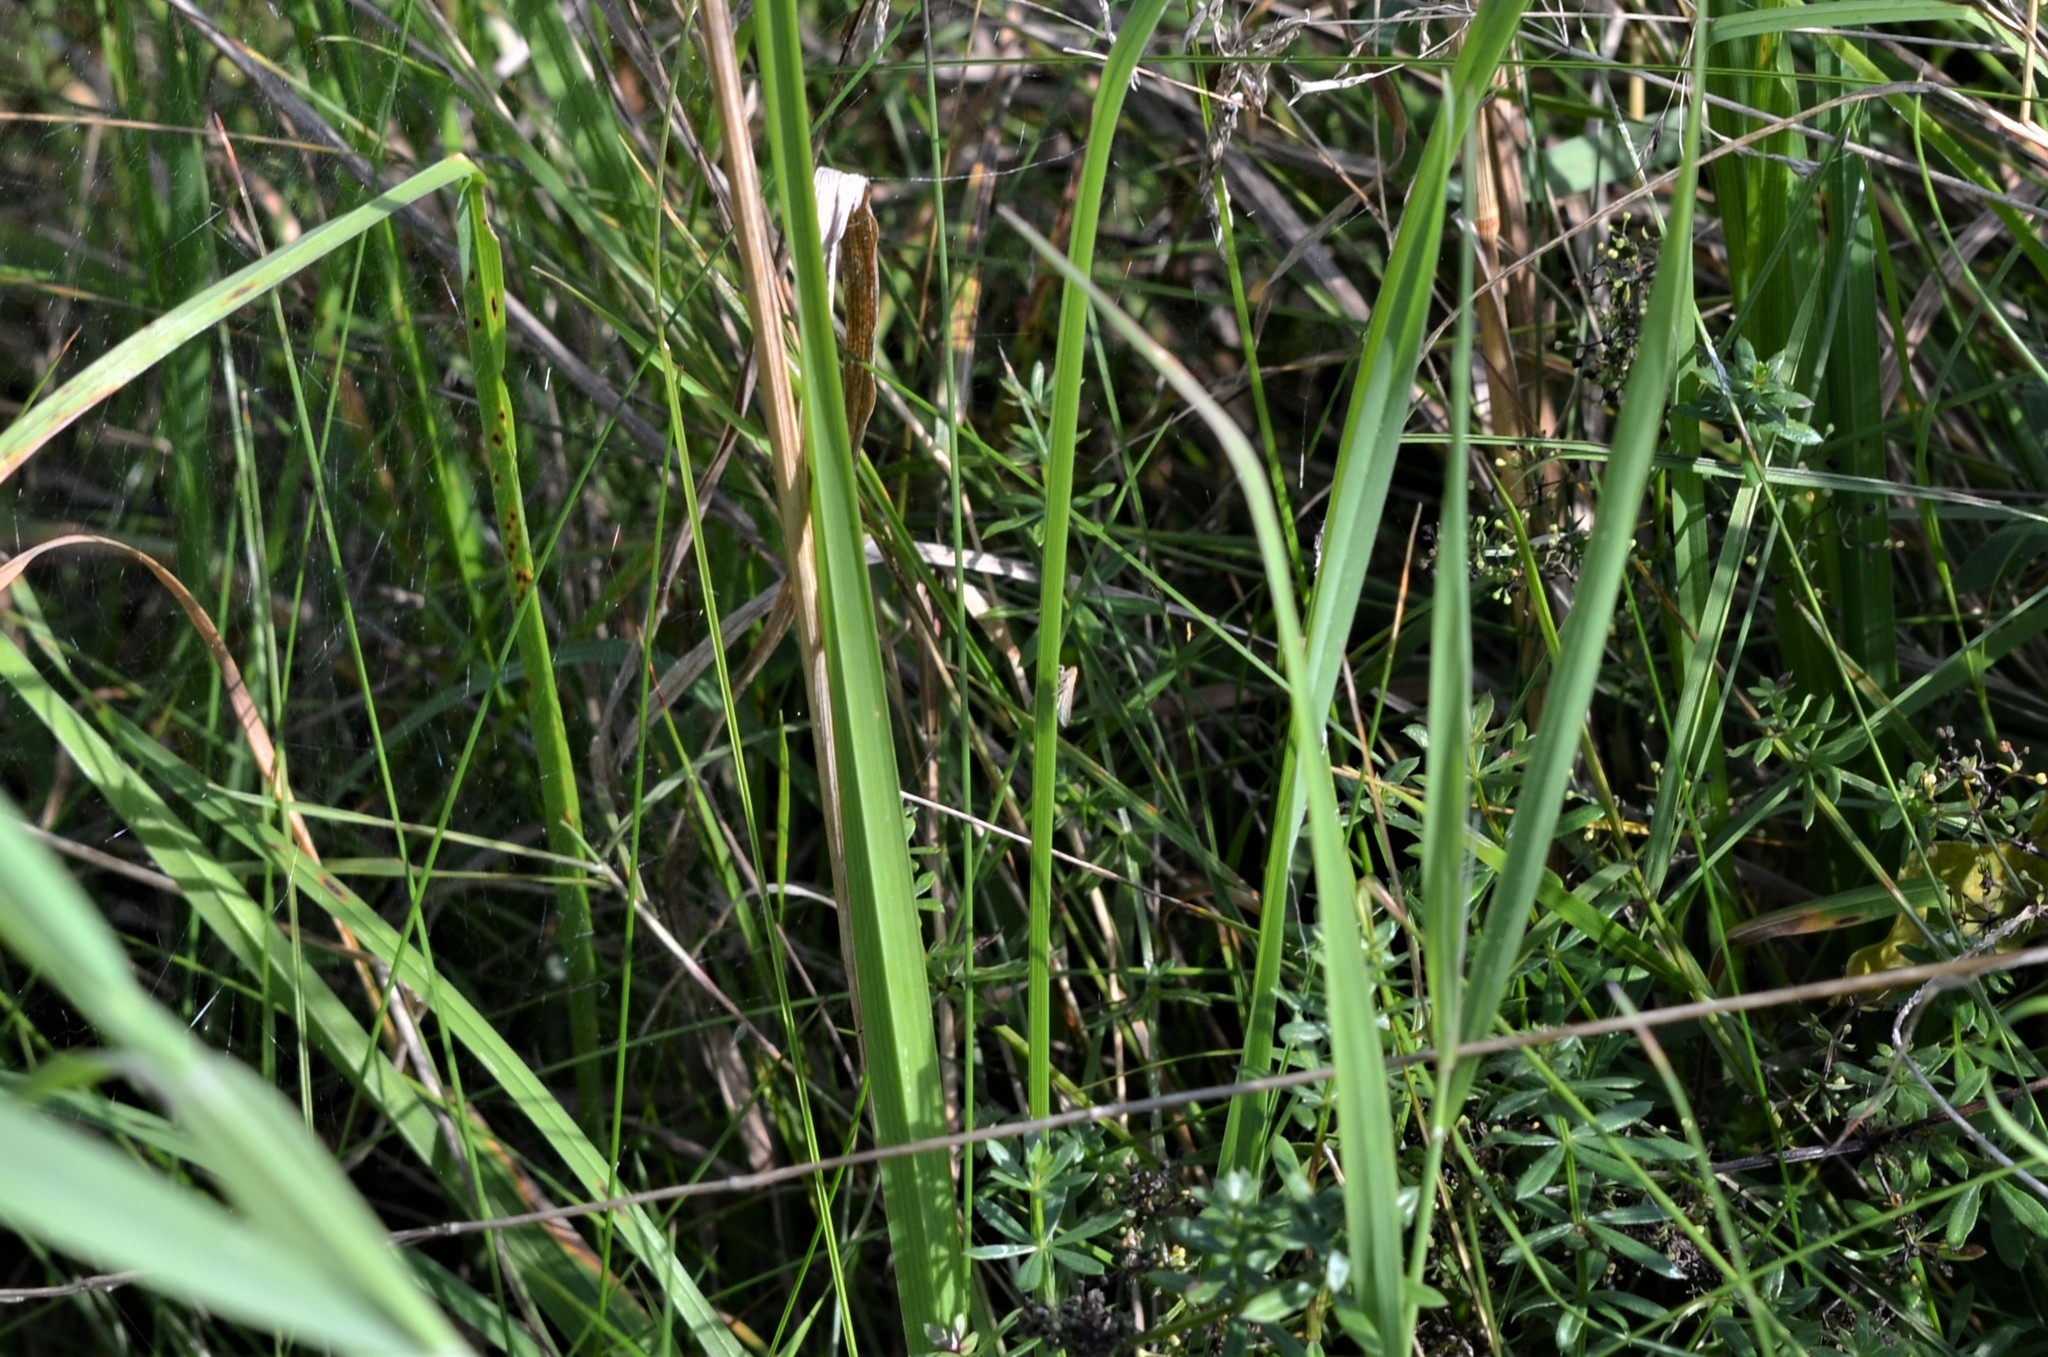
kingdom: Animalia
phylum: Arthropoda
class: Insecta
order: Hemiptera
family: Delphacidae
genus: Stenocranus
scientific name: Stenocranus major
